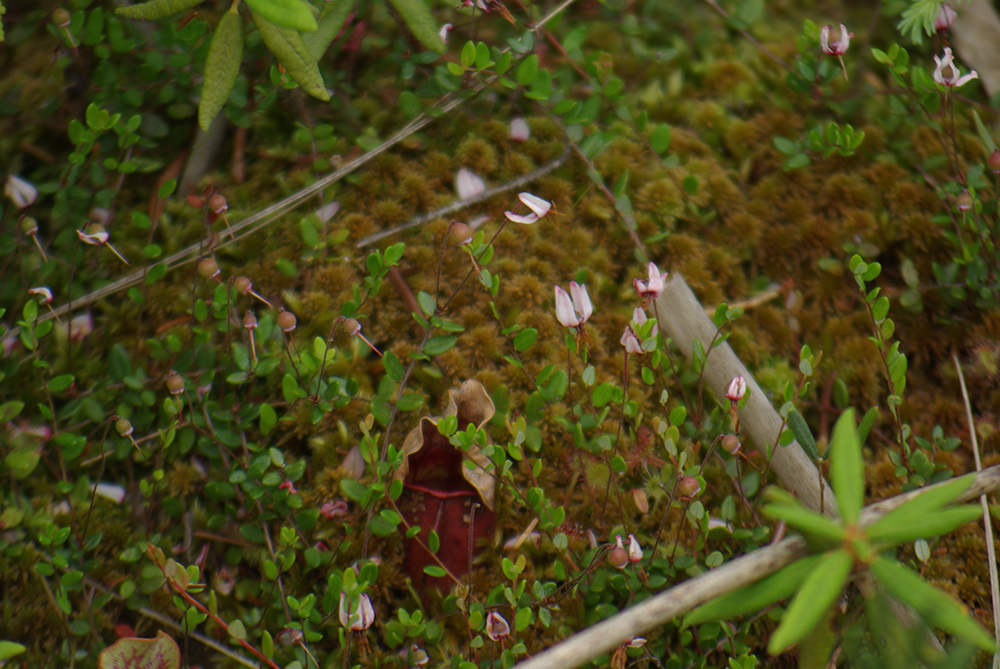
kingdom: Plantae
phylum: Tracheophyta
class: Magnoliopsida
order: Ericales
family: Ericaceae
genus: Vaccinium
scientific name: Vaccinium oxycoccos
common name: Cranberry
